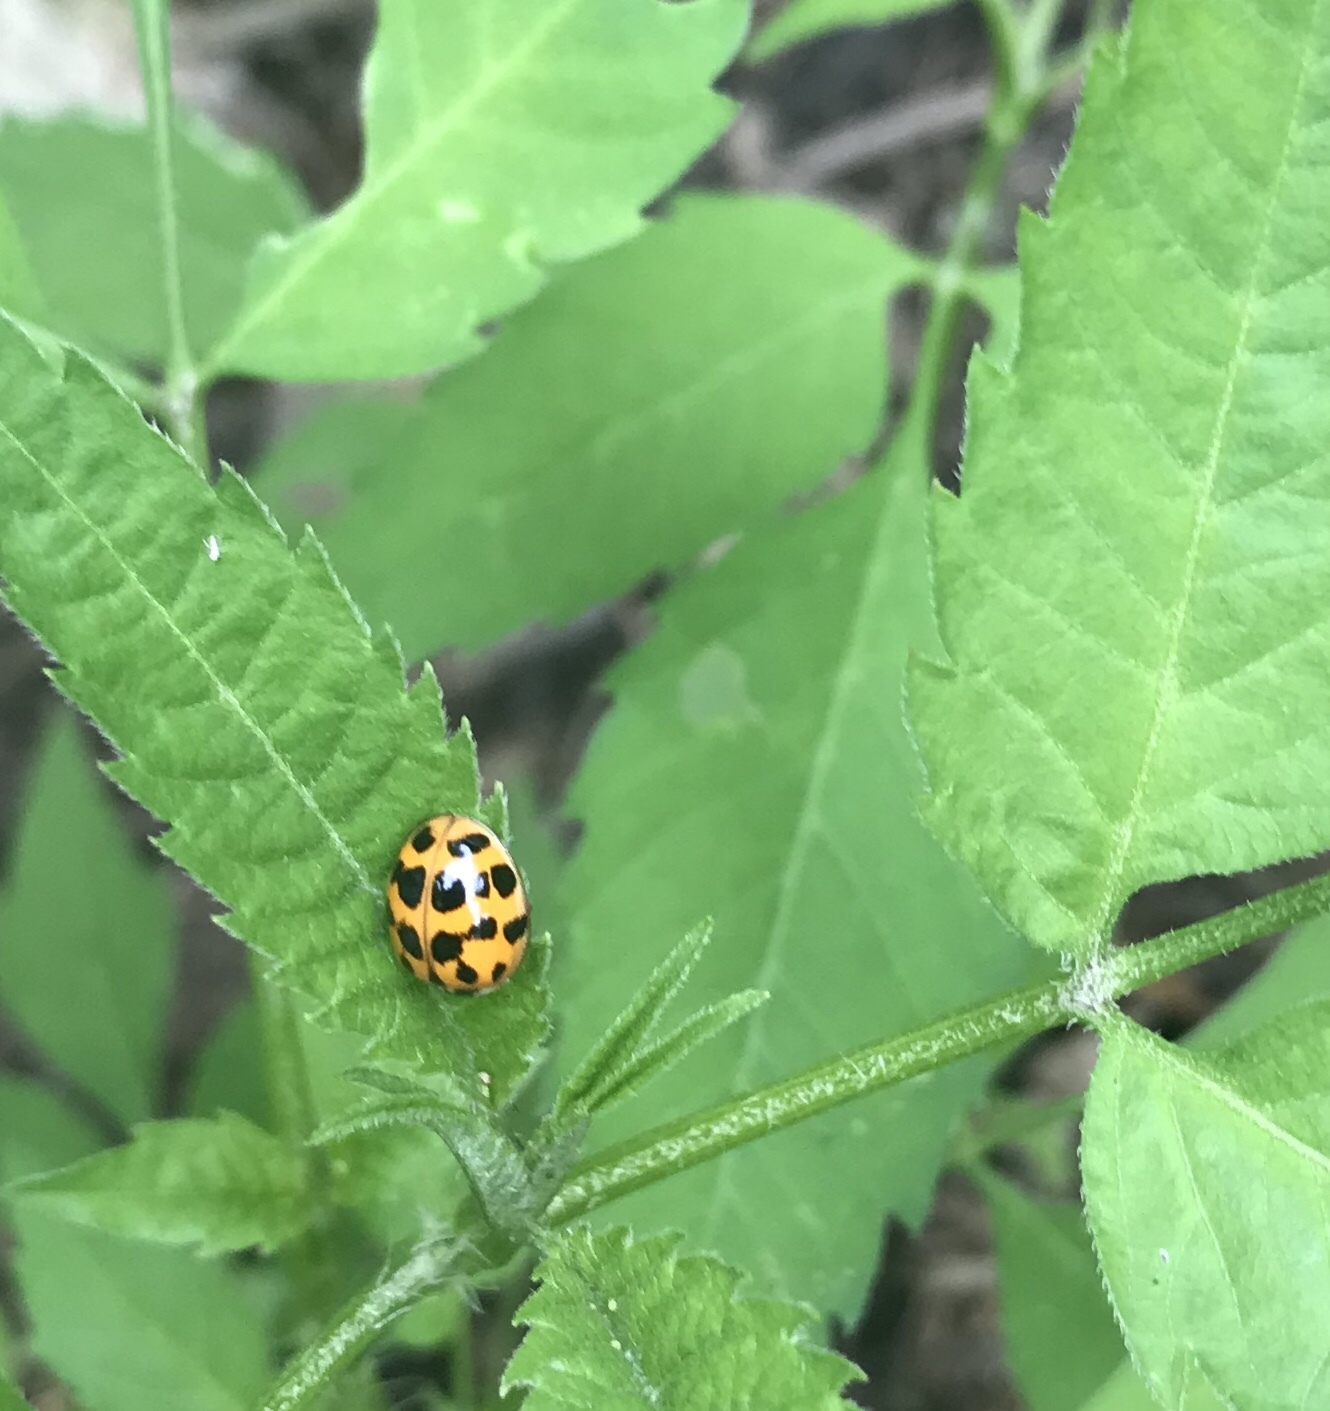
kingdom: Animalia
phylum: Arthropoda
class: Insecta
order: Coleoptera
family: Coccinellidae
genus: Harmonia
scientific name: Harmonia axyridis
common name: Harlequin ladybird
